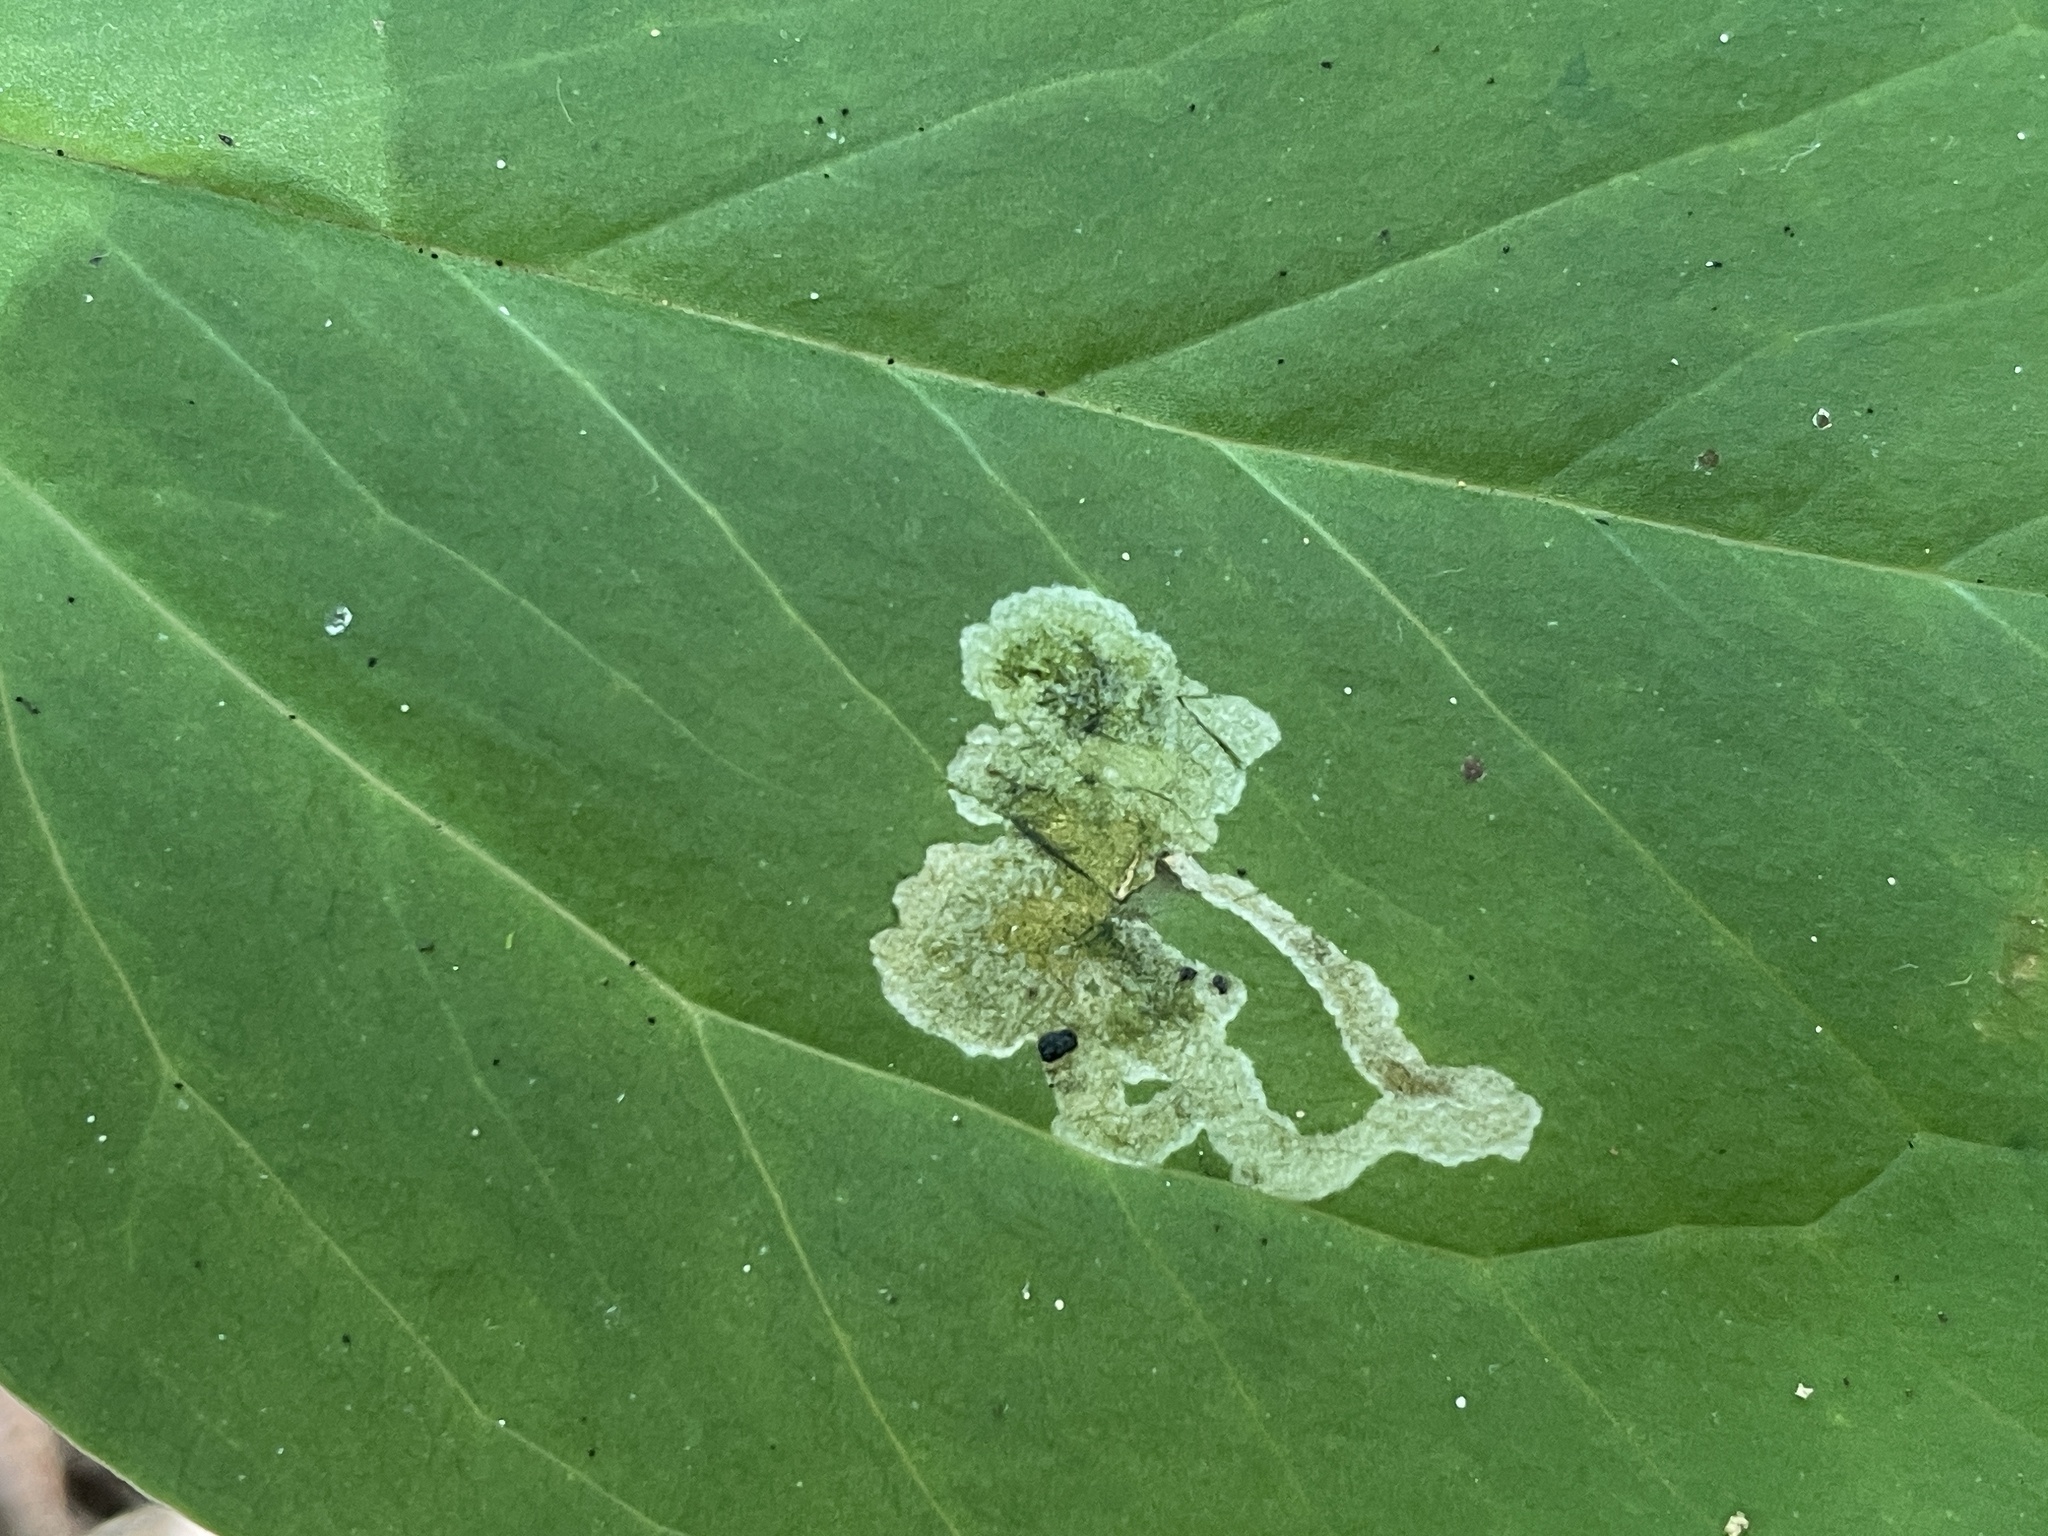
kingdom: Animalia
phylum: Arthropoda
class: Insecta
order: Diptera
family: Scathophagidae
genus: Leptopa
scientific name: Leptopa
